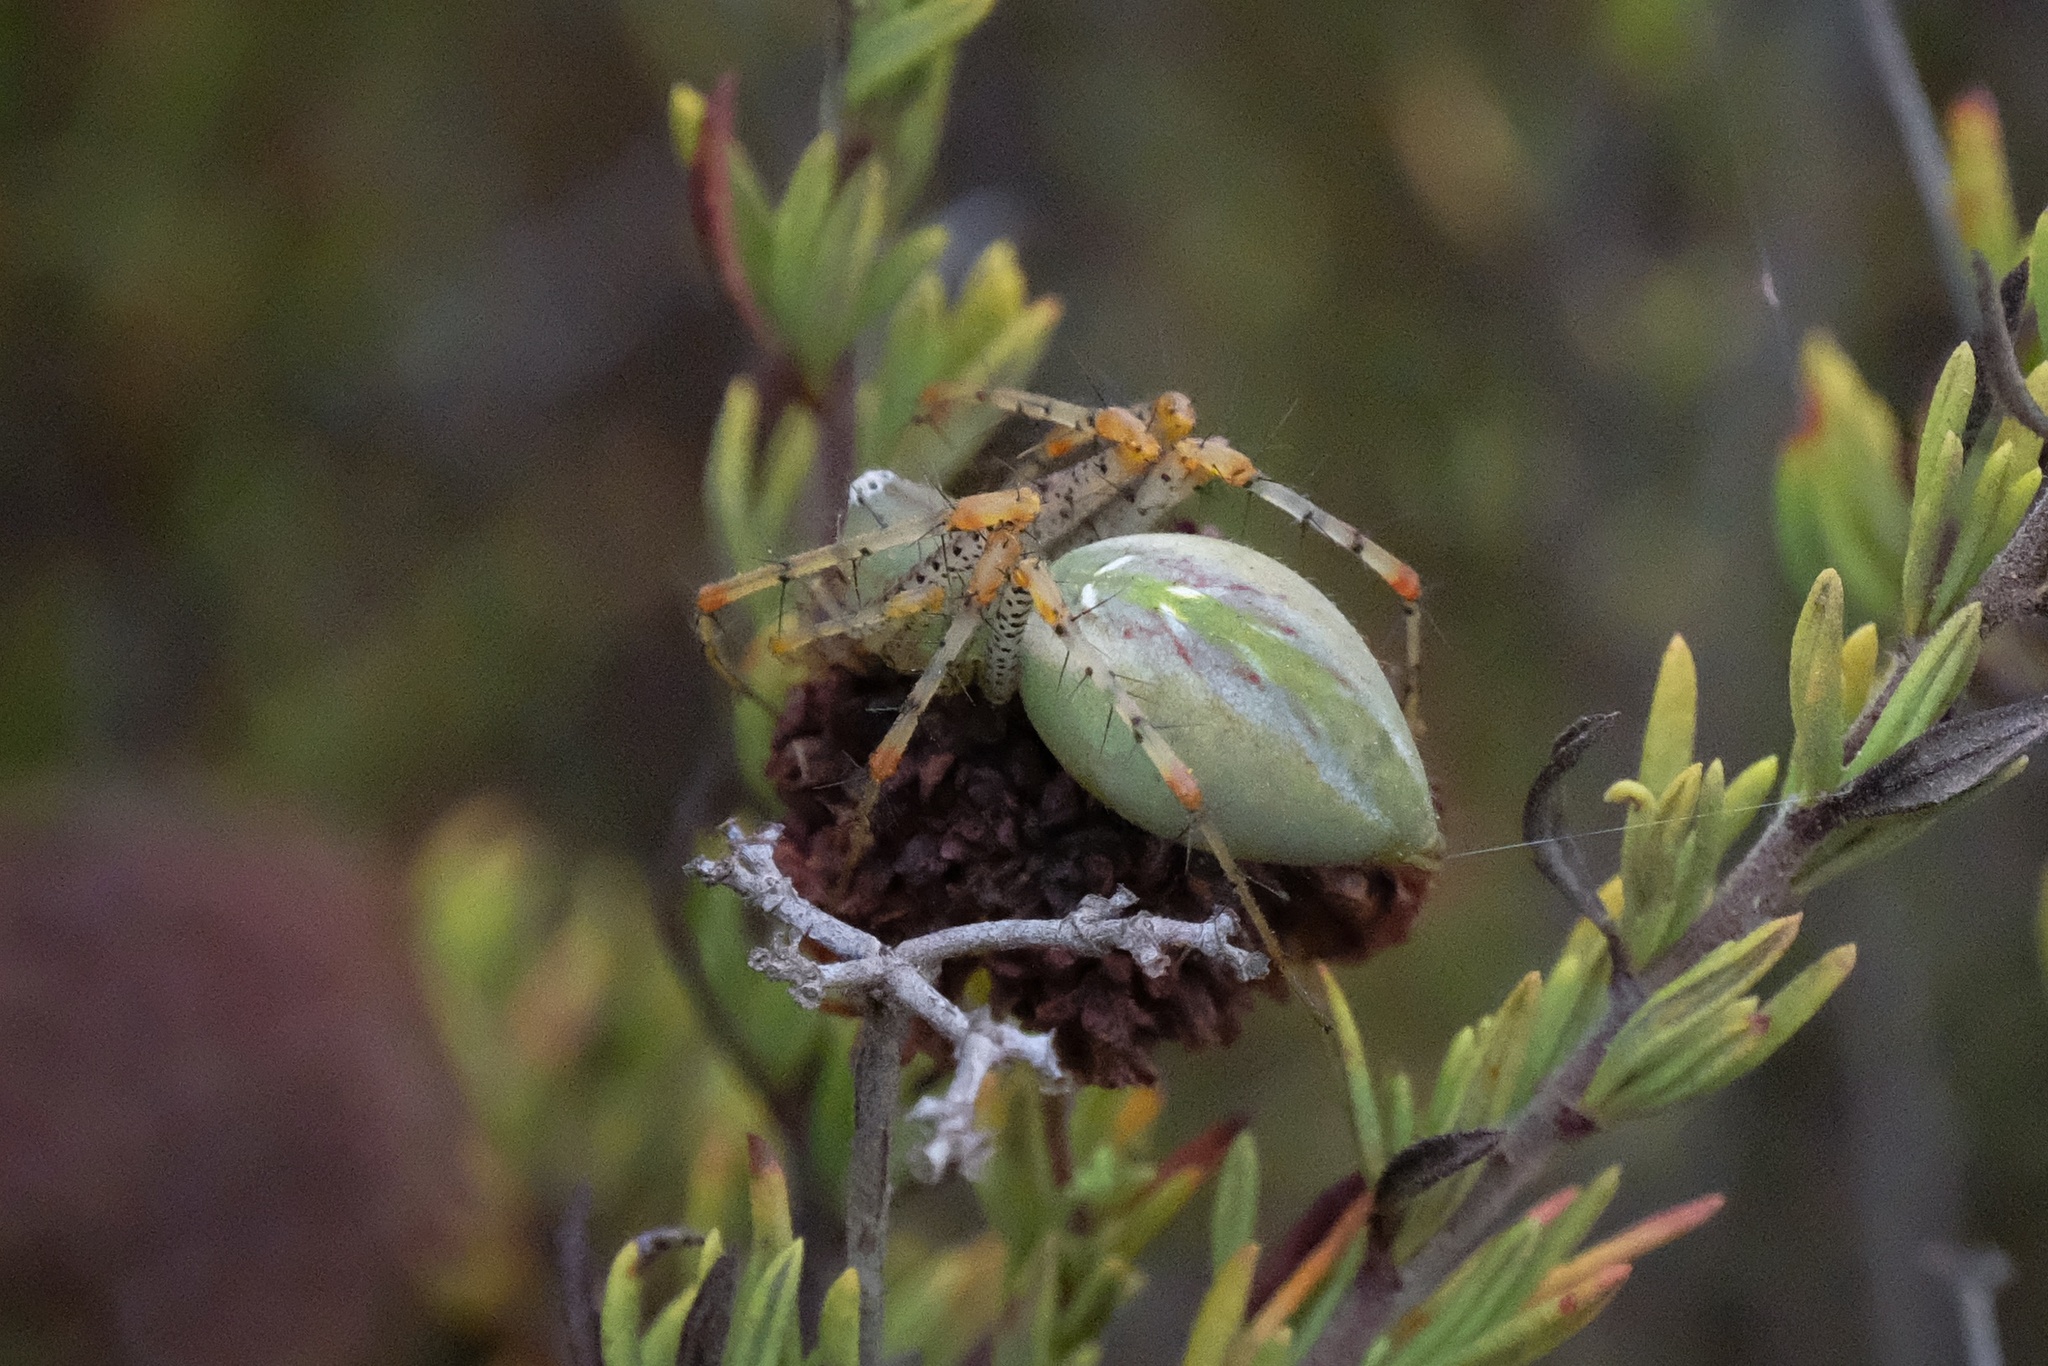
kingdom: Animalia
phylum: Arthropoda
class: Arachnida
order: Araneae
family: Oxyopidae
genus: Peucetia
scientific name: Peucetia viridans
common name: Lynx spiders
